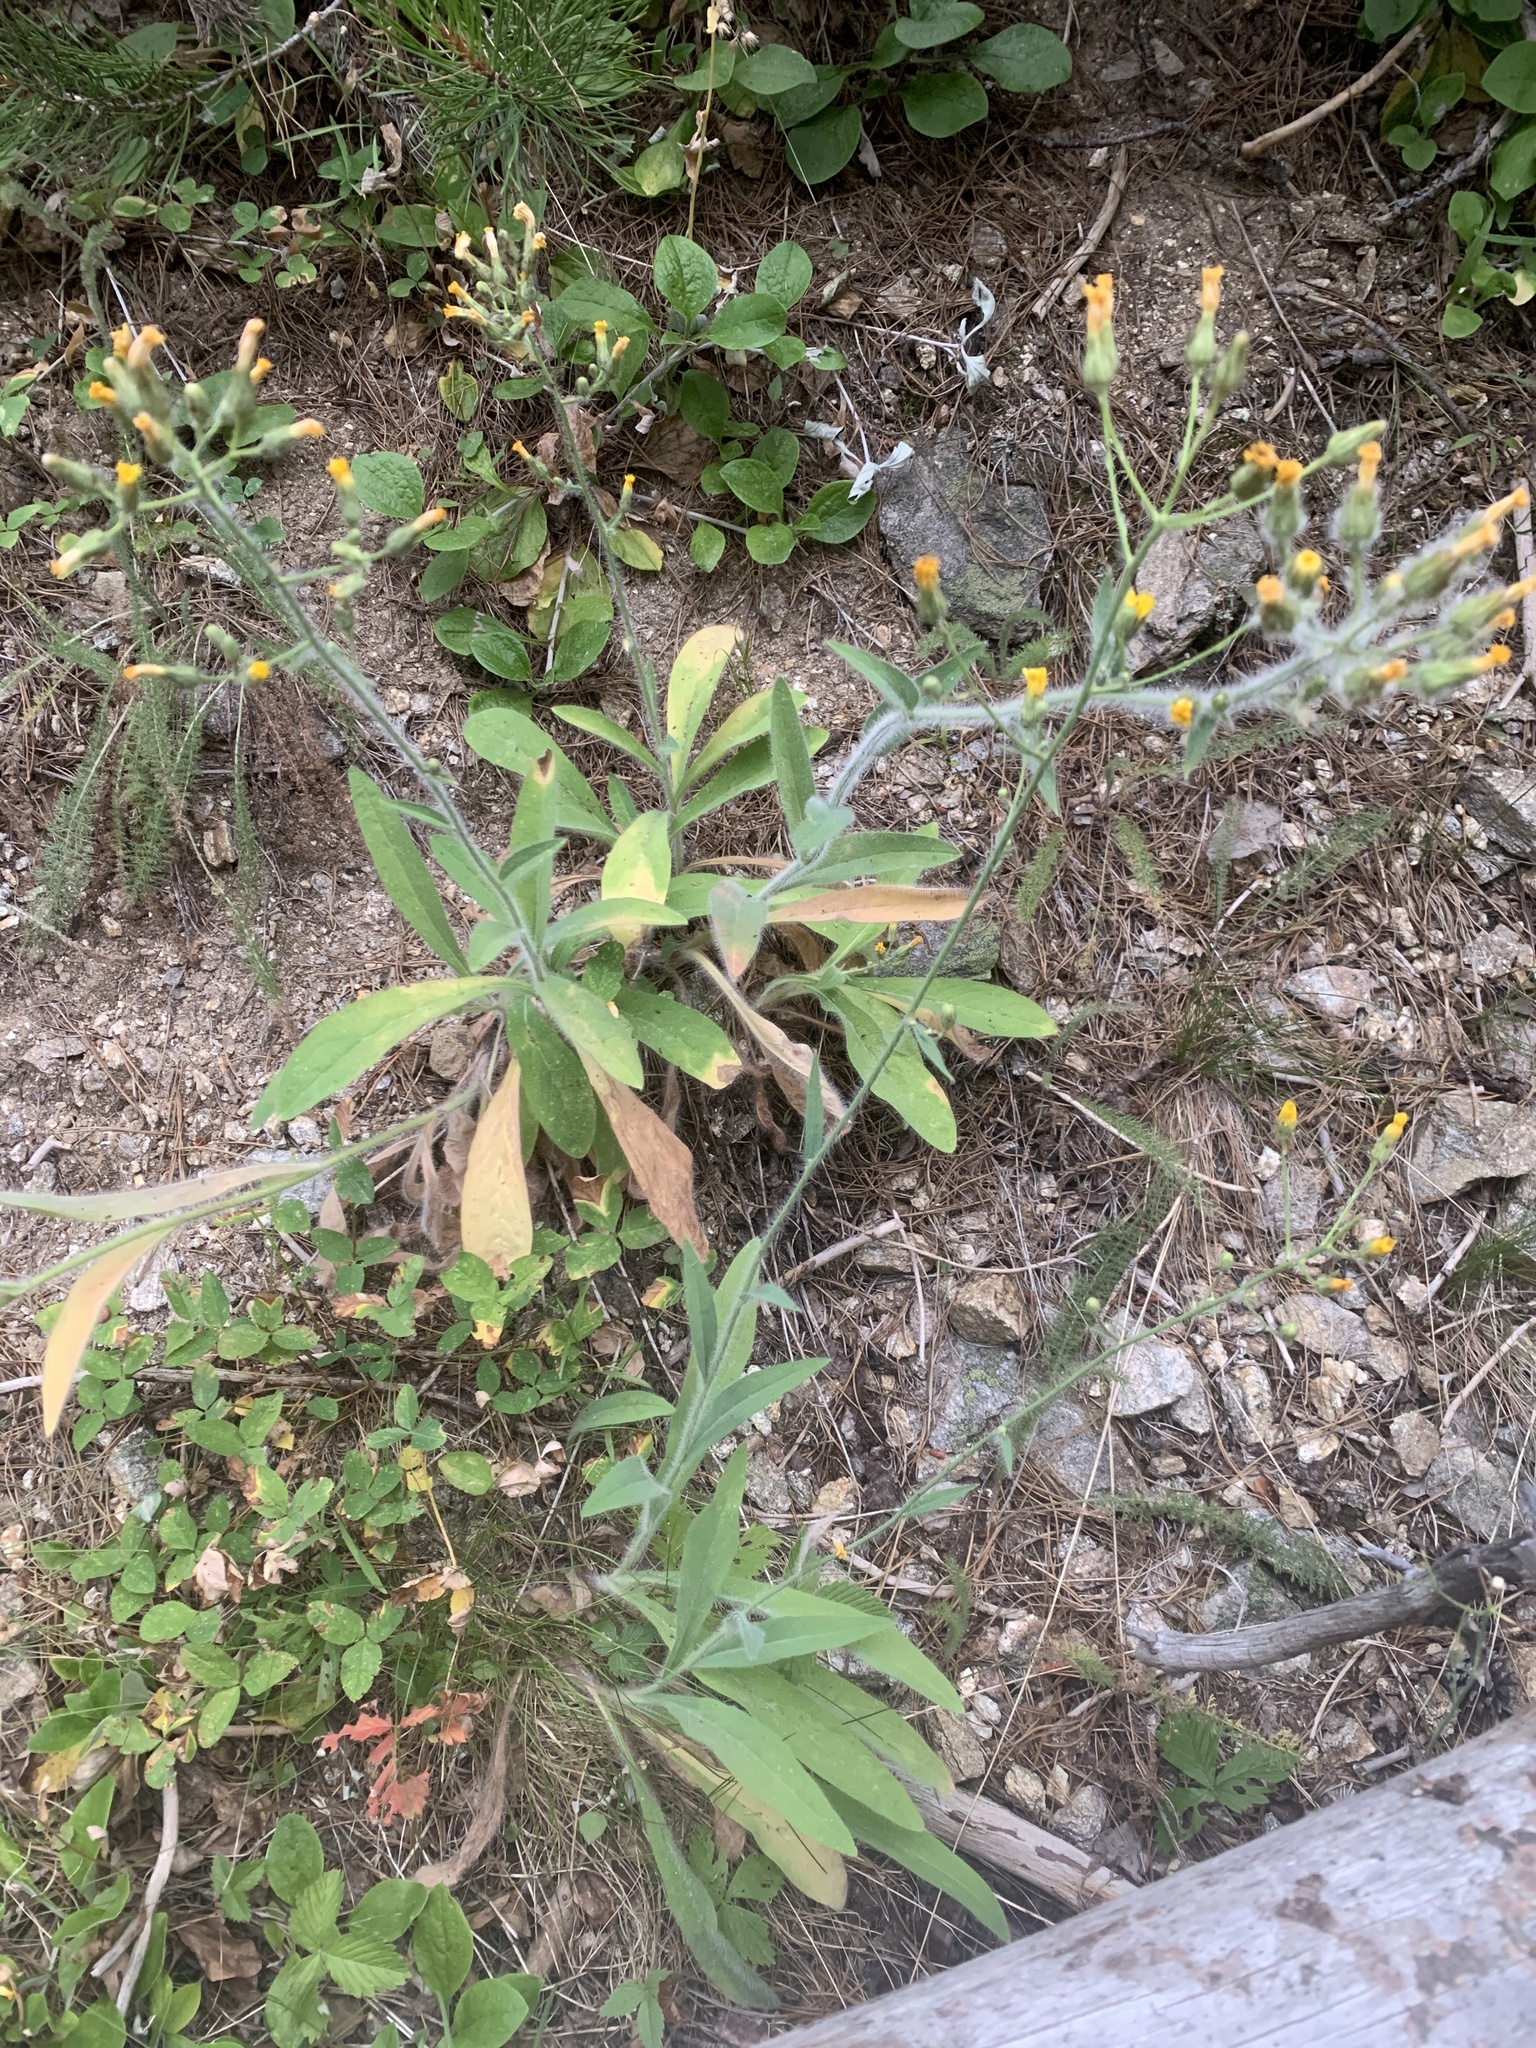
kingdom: Plantae
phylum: Tracheophyta
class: Magnoliopsida
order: Asterales
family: Asteraceae
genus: Hieracium
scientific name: Hieracium scouleri
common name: Hound's-tongue hawkweed
